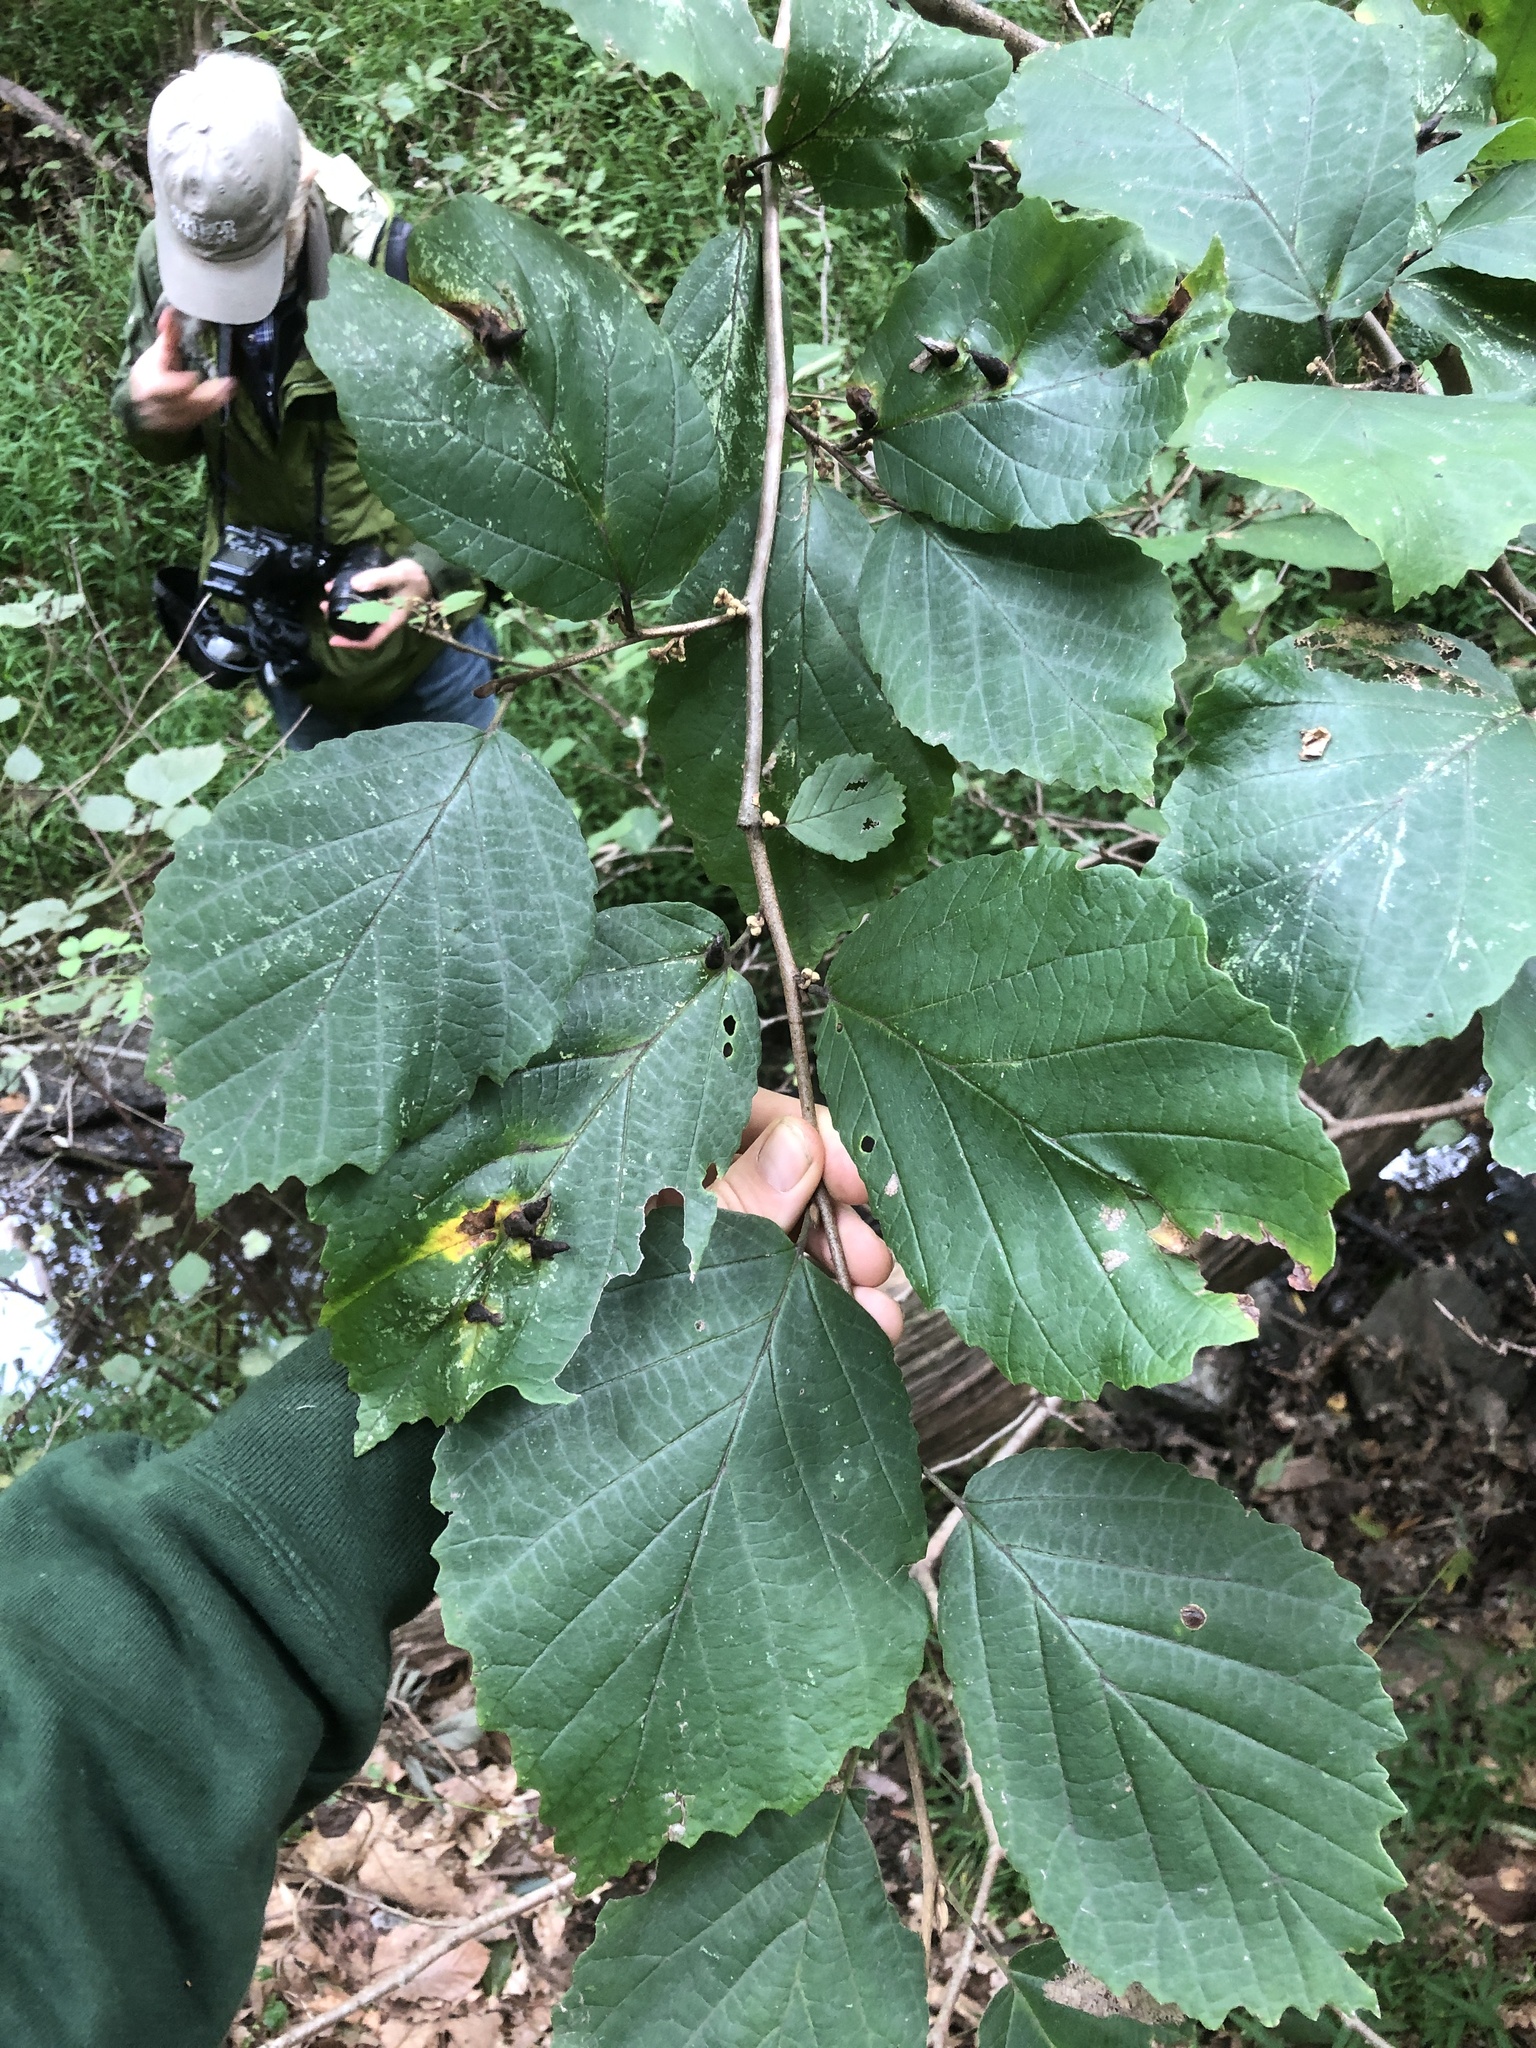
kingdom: Plantae
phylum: Tracheophyta
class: Magnoliopsida
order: Saxifragales
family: Hamamelidaceae
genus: Hamamelis
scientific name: Hamamelis virginiana
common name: Witch-hazel
